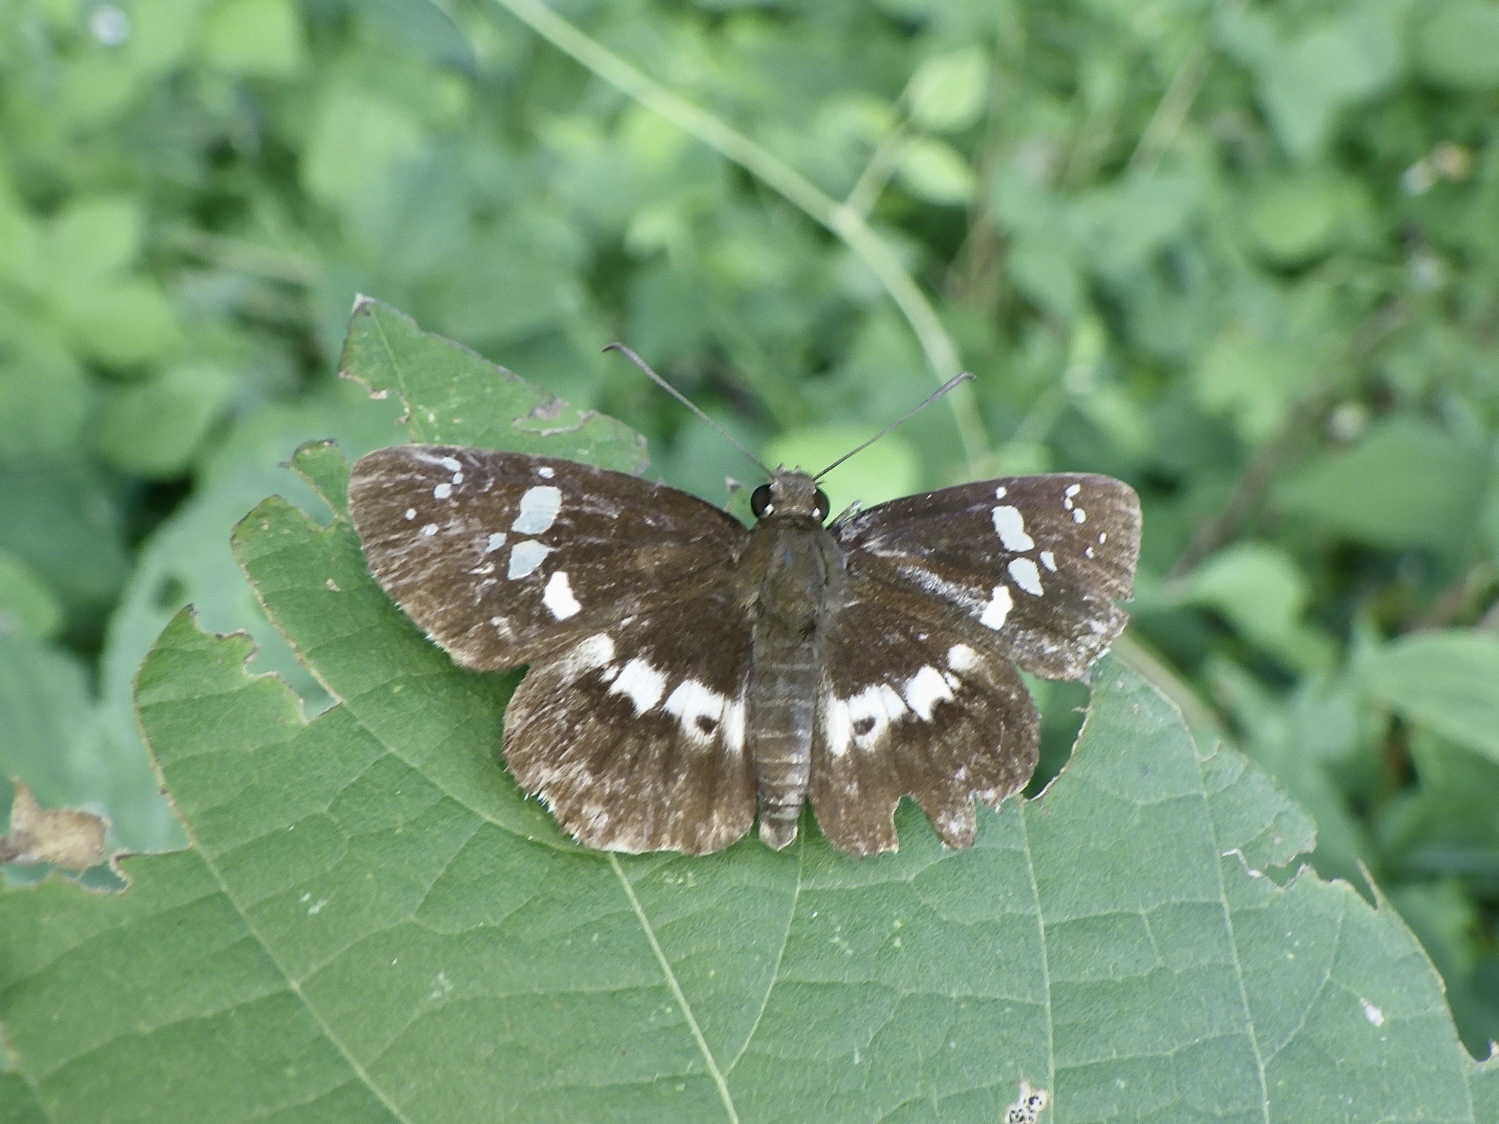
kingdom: Animalia
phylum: Arthropoda
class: Insecta
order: Lepidoptera
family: Hesperiidae
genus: Daimio
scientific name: Daimio tethys
